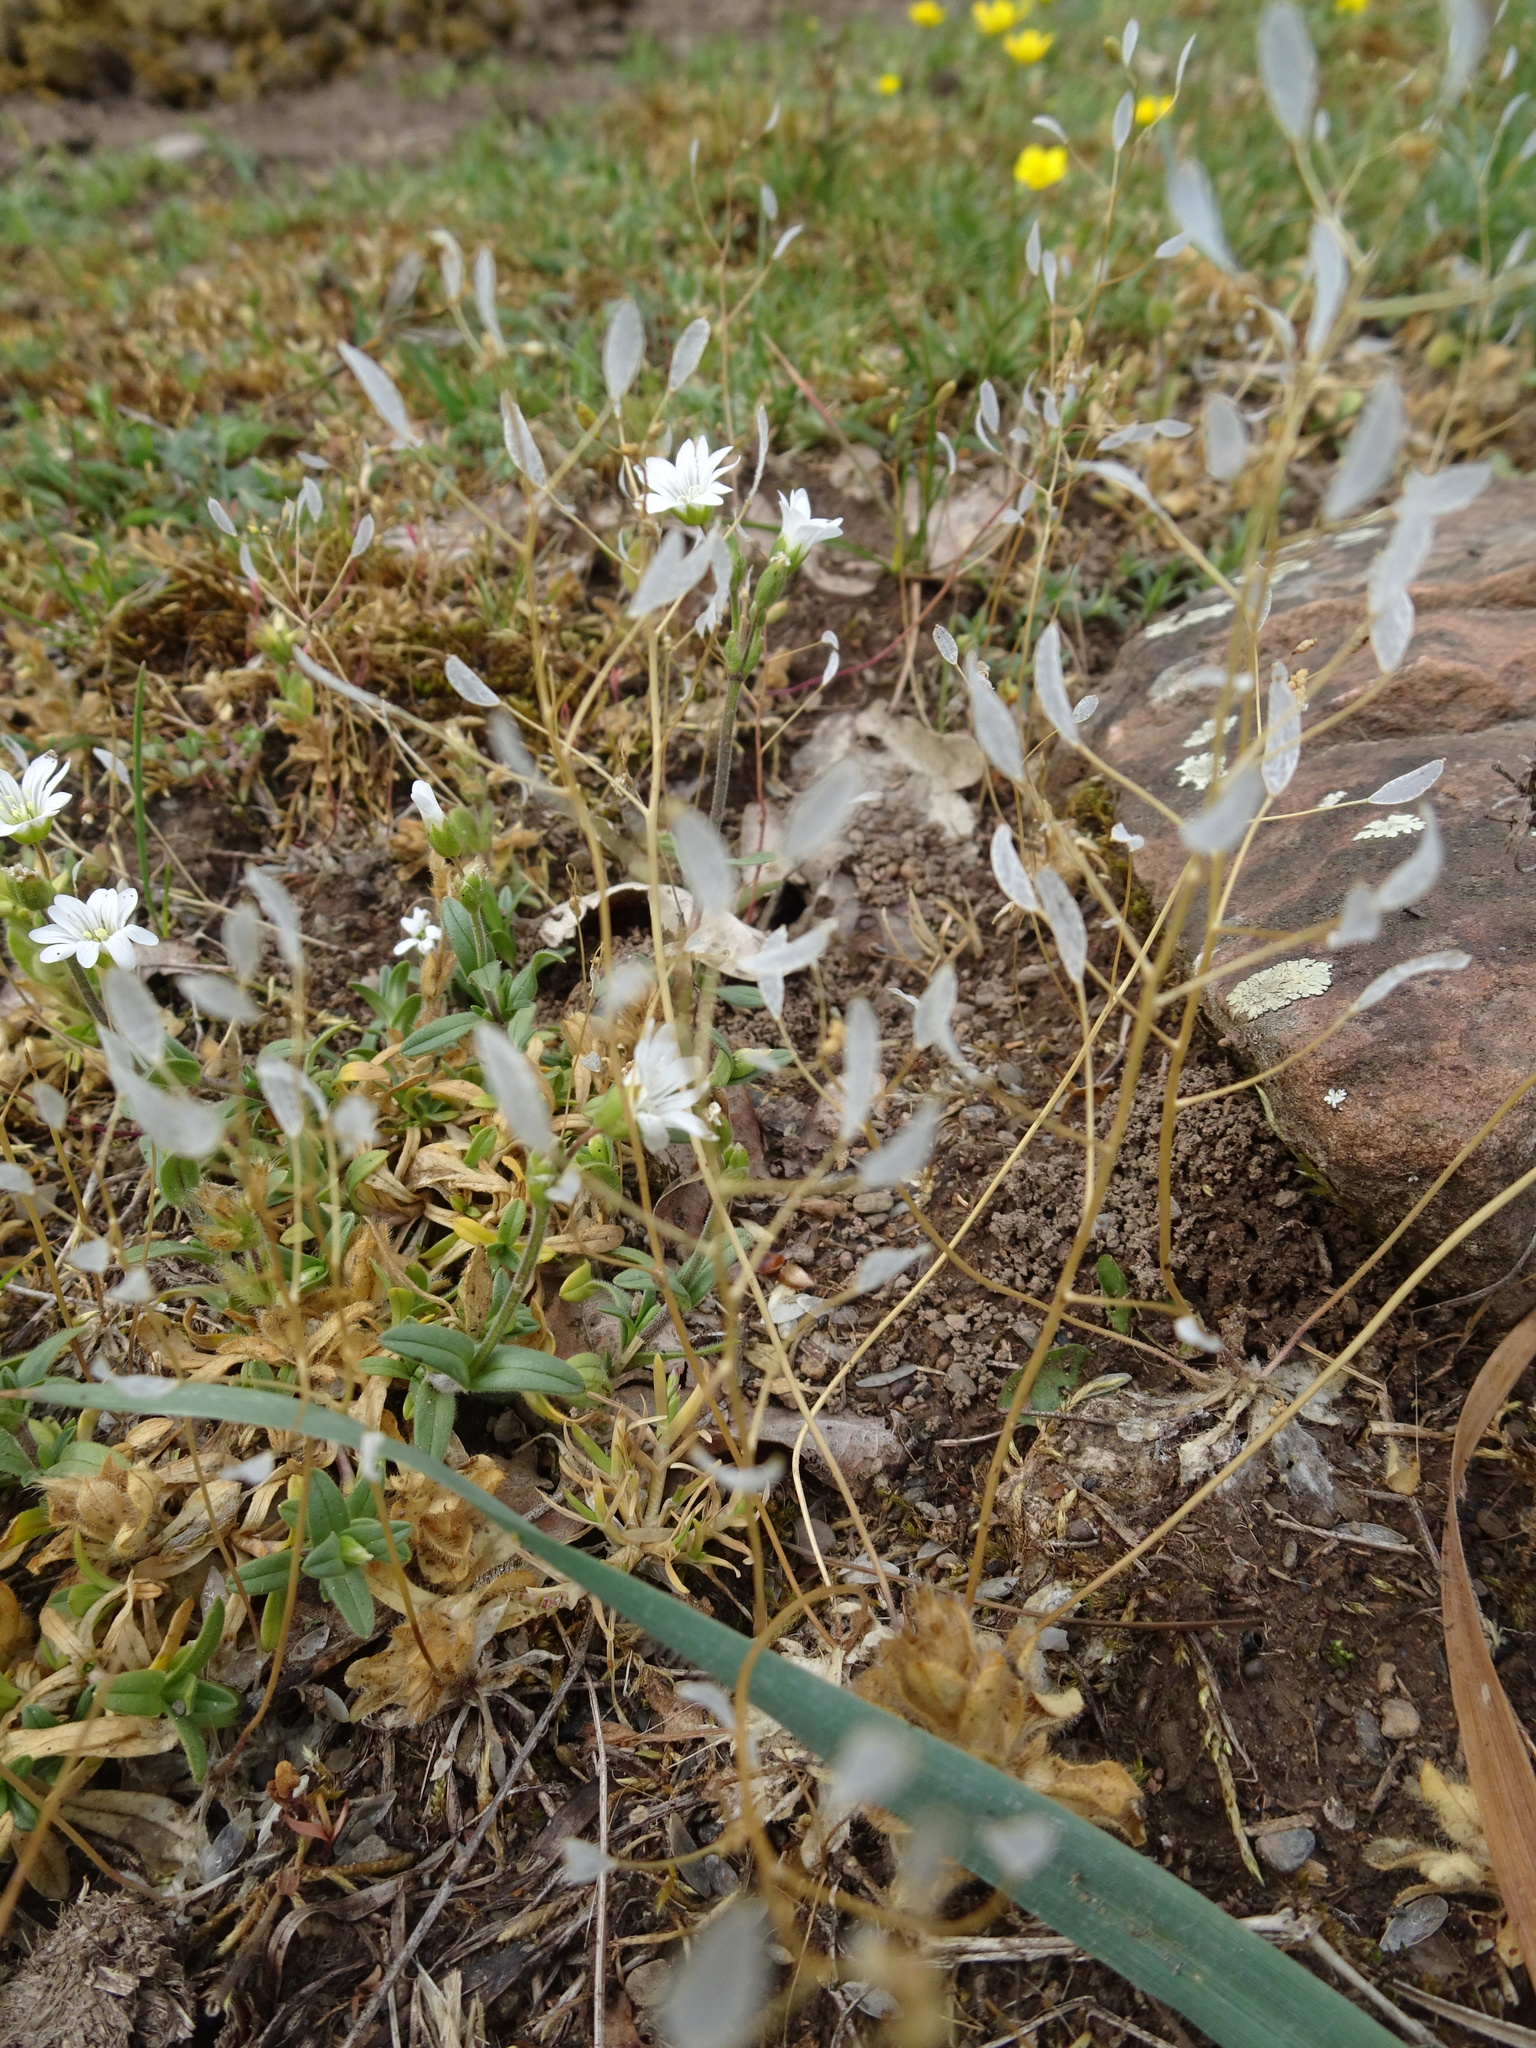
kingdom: Plantae
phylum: Tracheophyta
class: Magnoliopsida
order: Brassicales
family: Brassicaceae
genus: Draba
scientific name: Draba verna
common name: Spring draba
